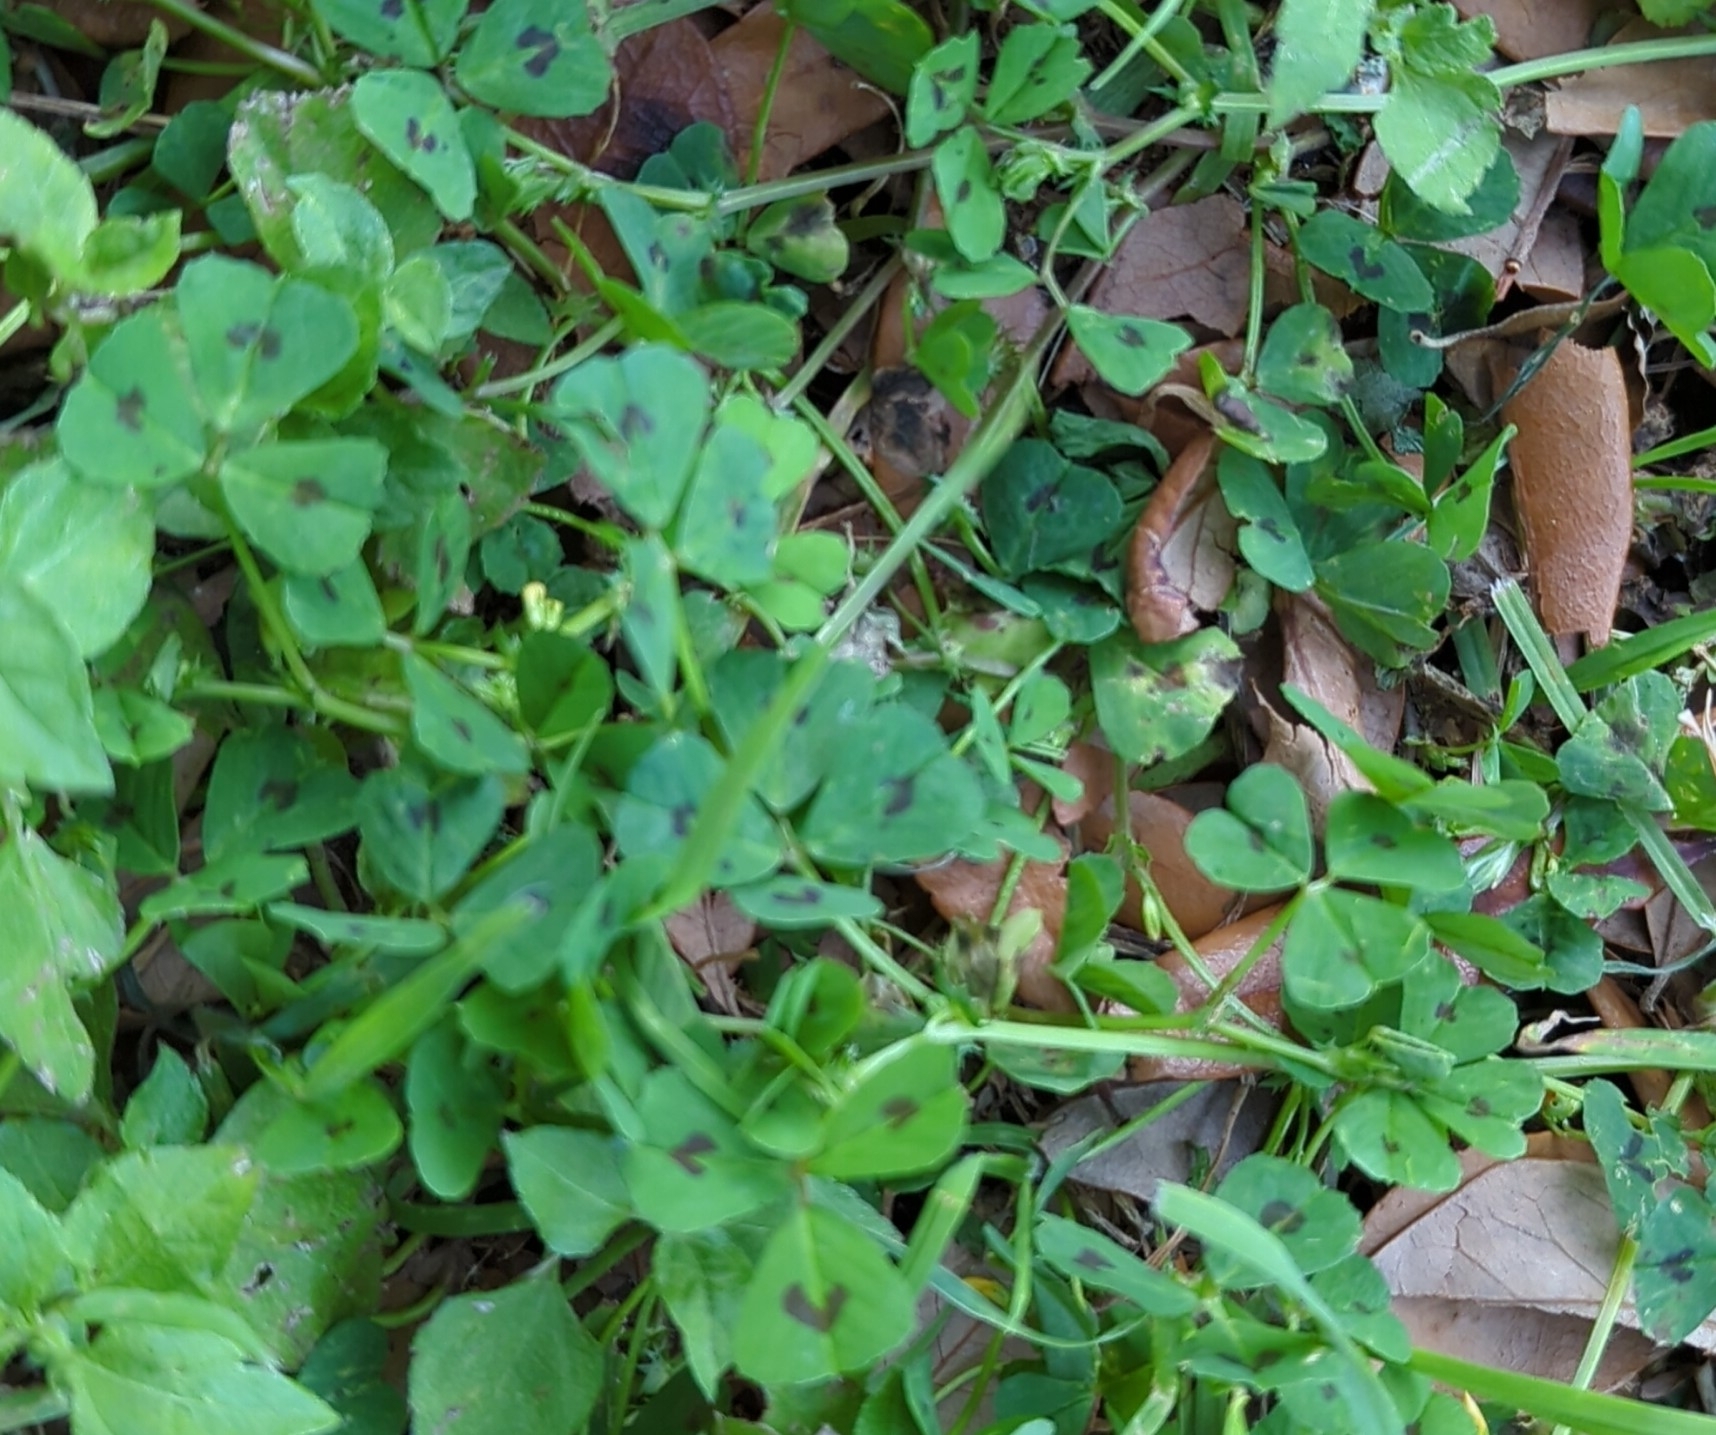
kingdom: Plantae
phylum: Tracheophyta
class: Magnoliopsida
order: Fabales
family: Fabaceae
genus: Medicago
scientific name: Medicago arabica
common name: Spotted medick
